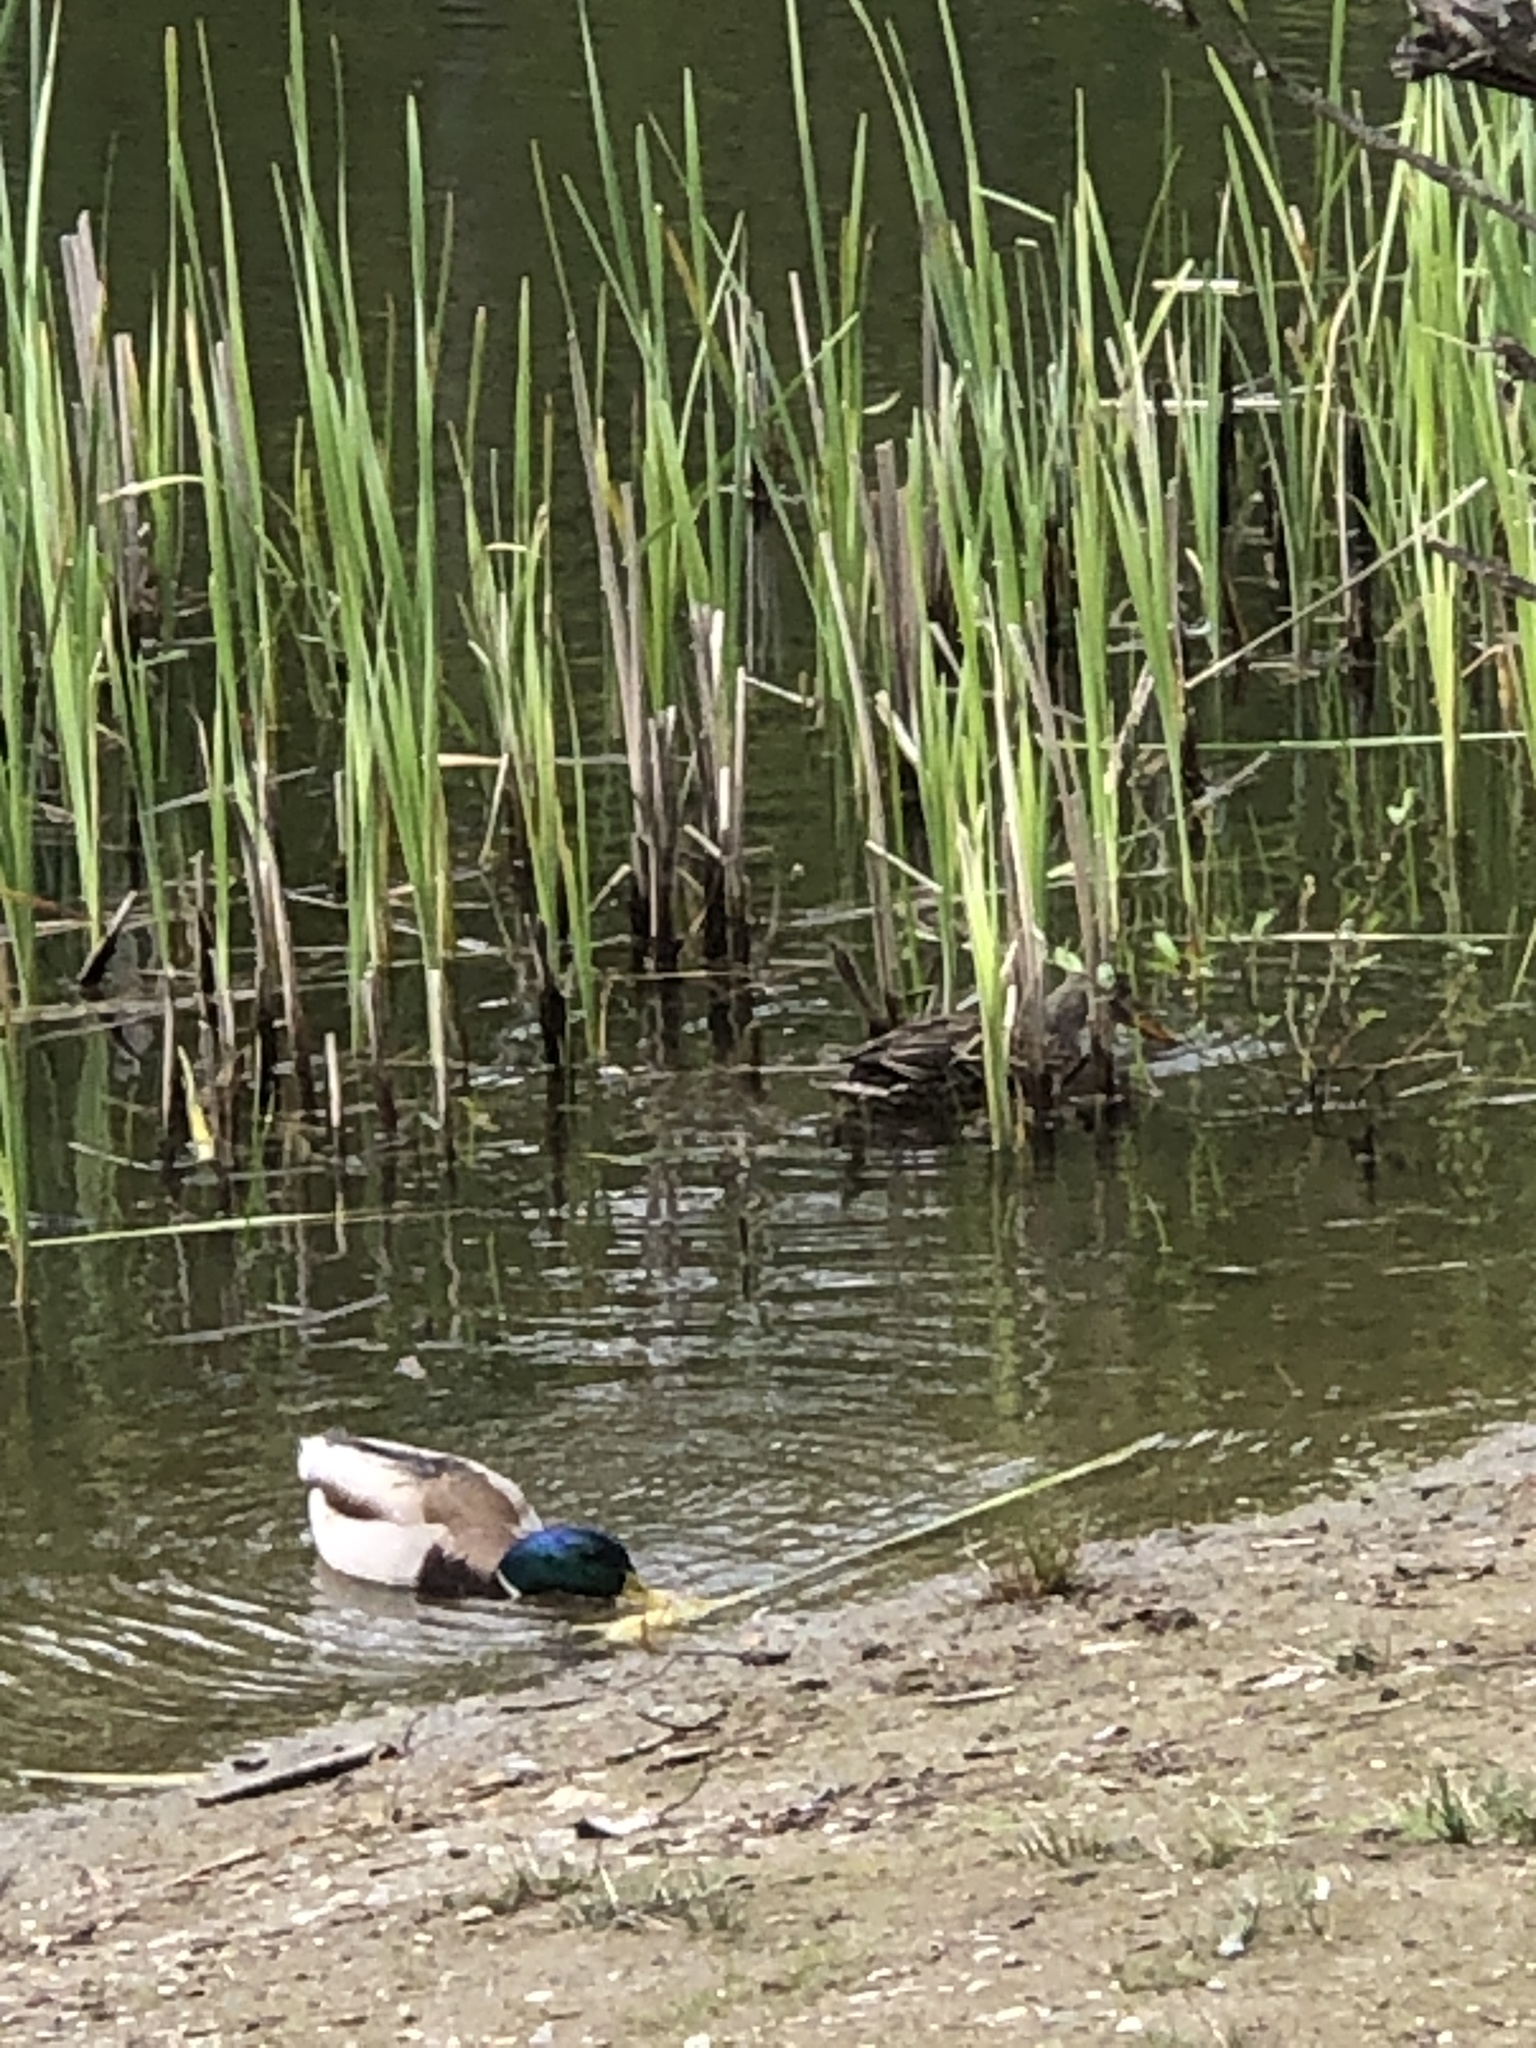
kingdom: Animalia
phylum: Chordata
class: Aves
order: Anseriformes
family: Anatidae
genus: Anas
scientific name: Anas platyrhynchos
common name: Mallard
